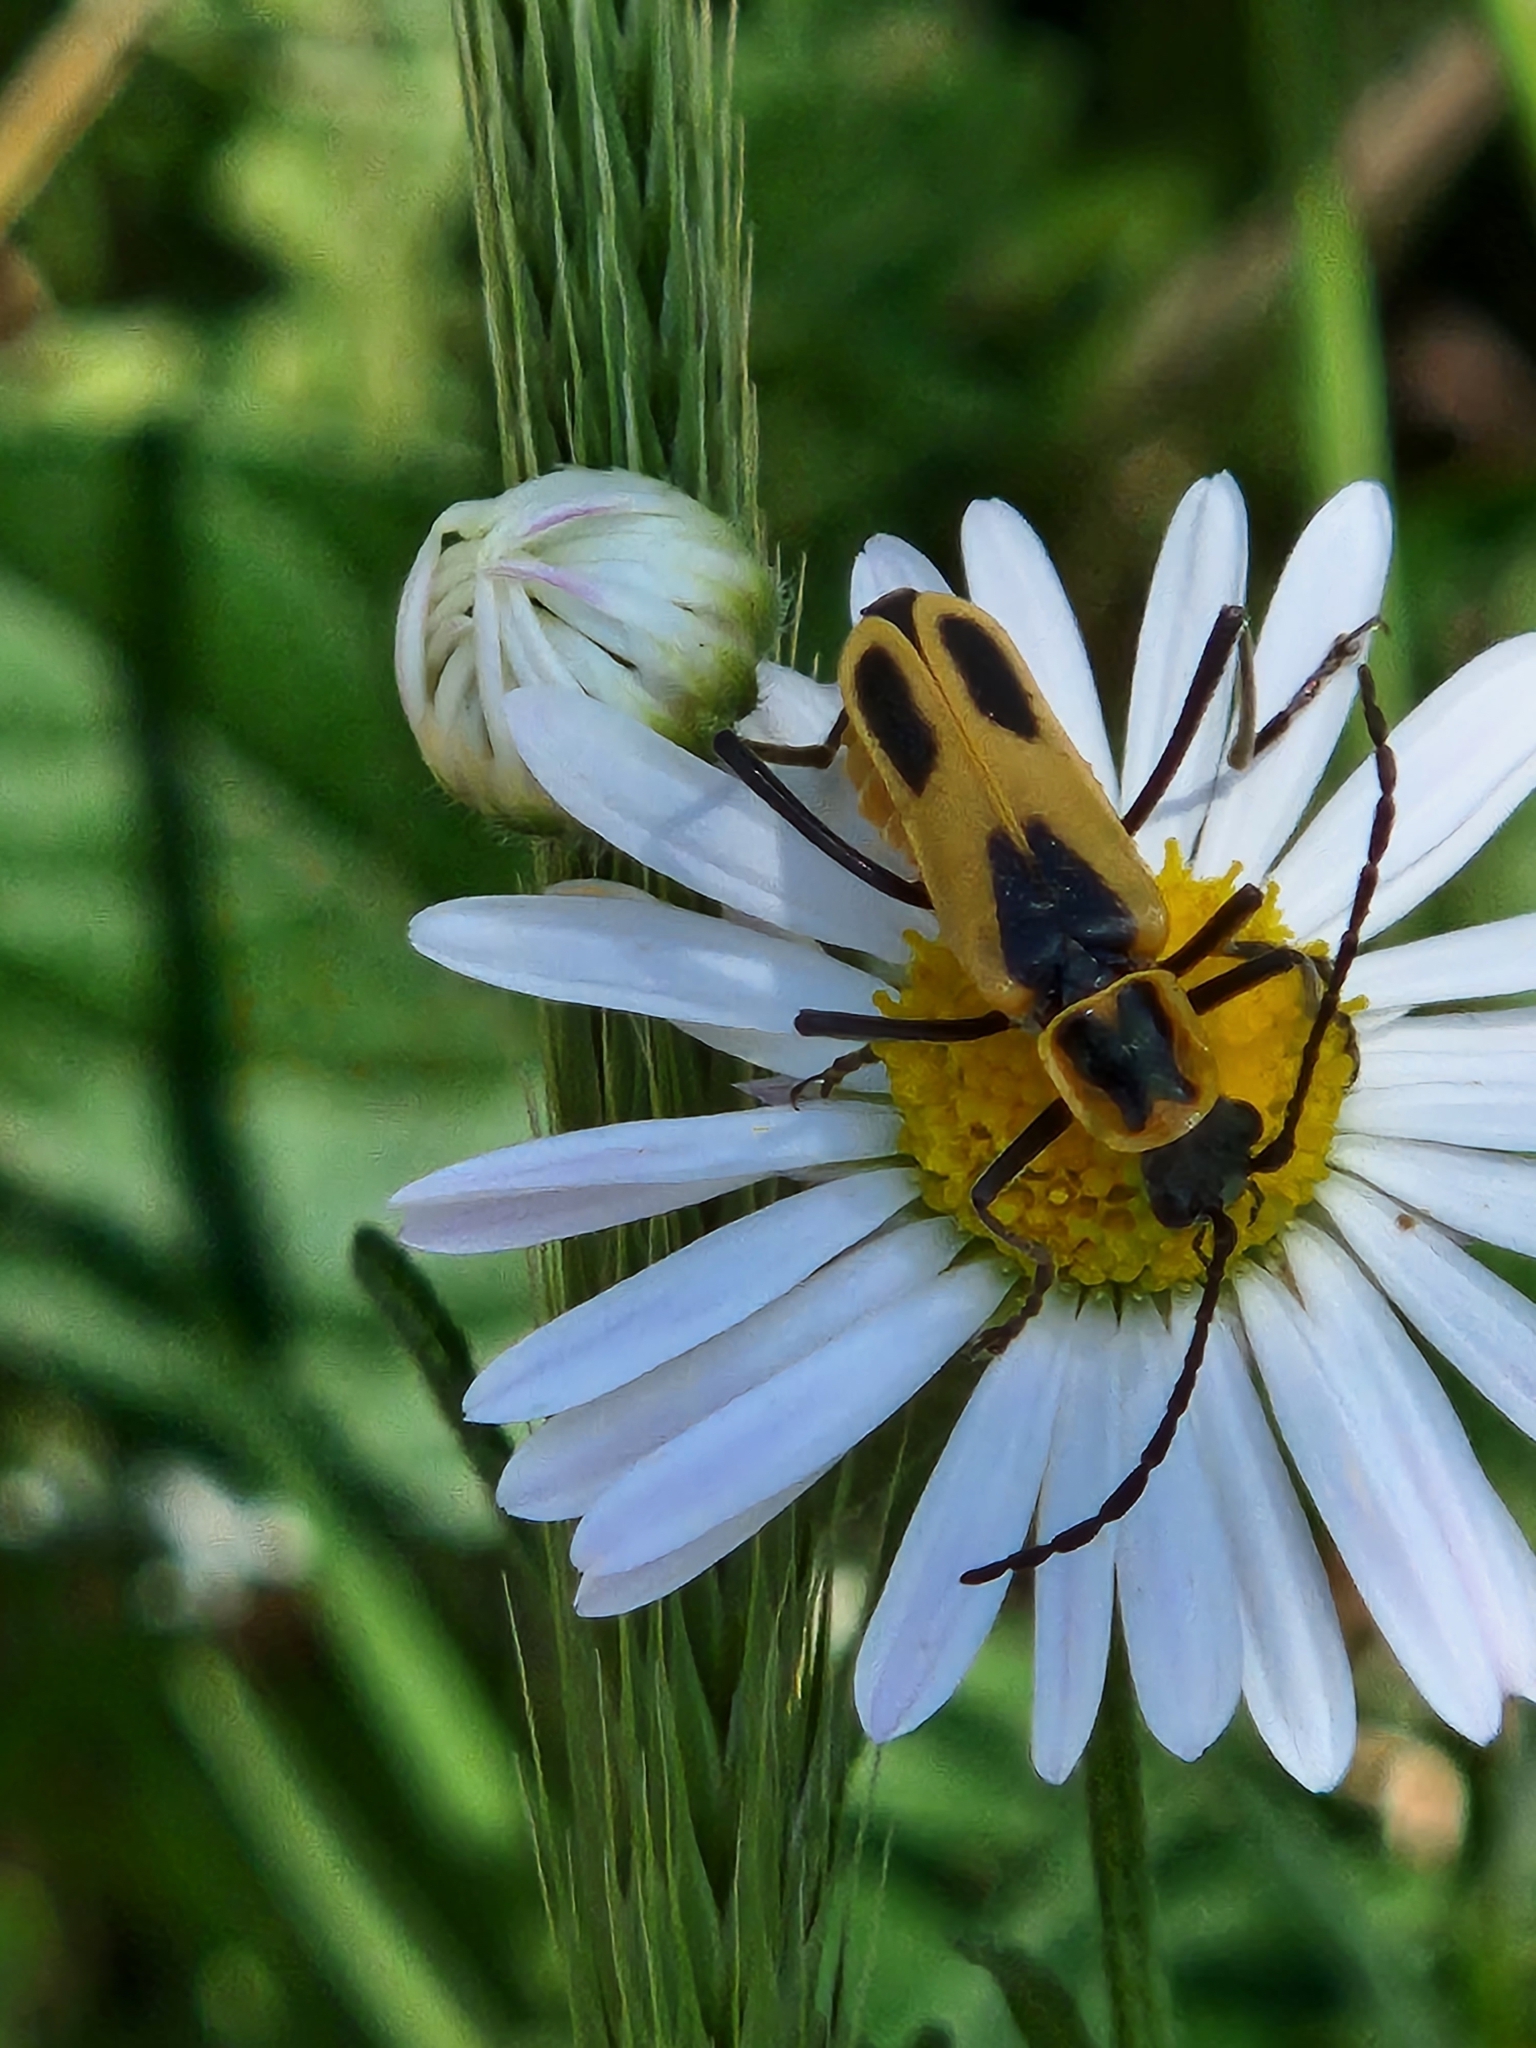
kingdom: Animalia
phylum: Arthropoda
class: Insecta
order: Coleoptera
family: Cantharidae
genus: Chauliognathus
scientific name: Chauliognathus scutellaris
